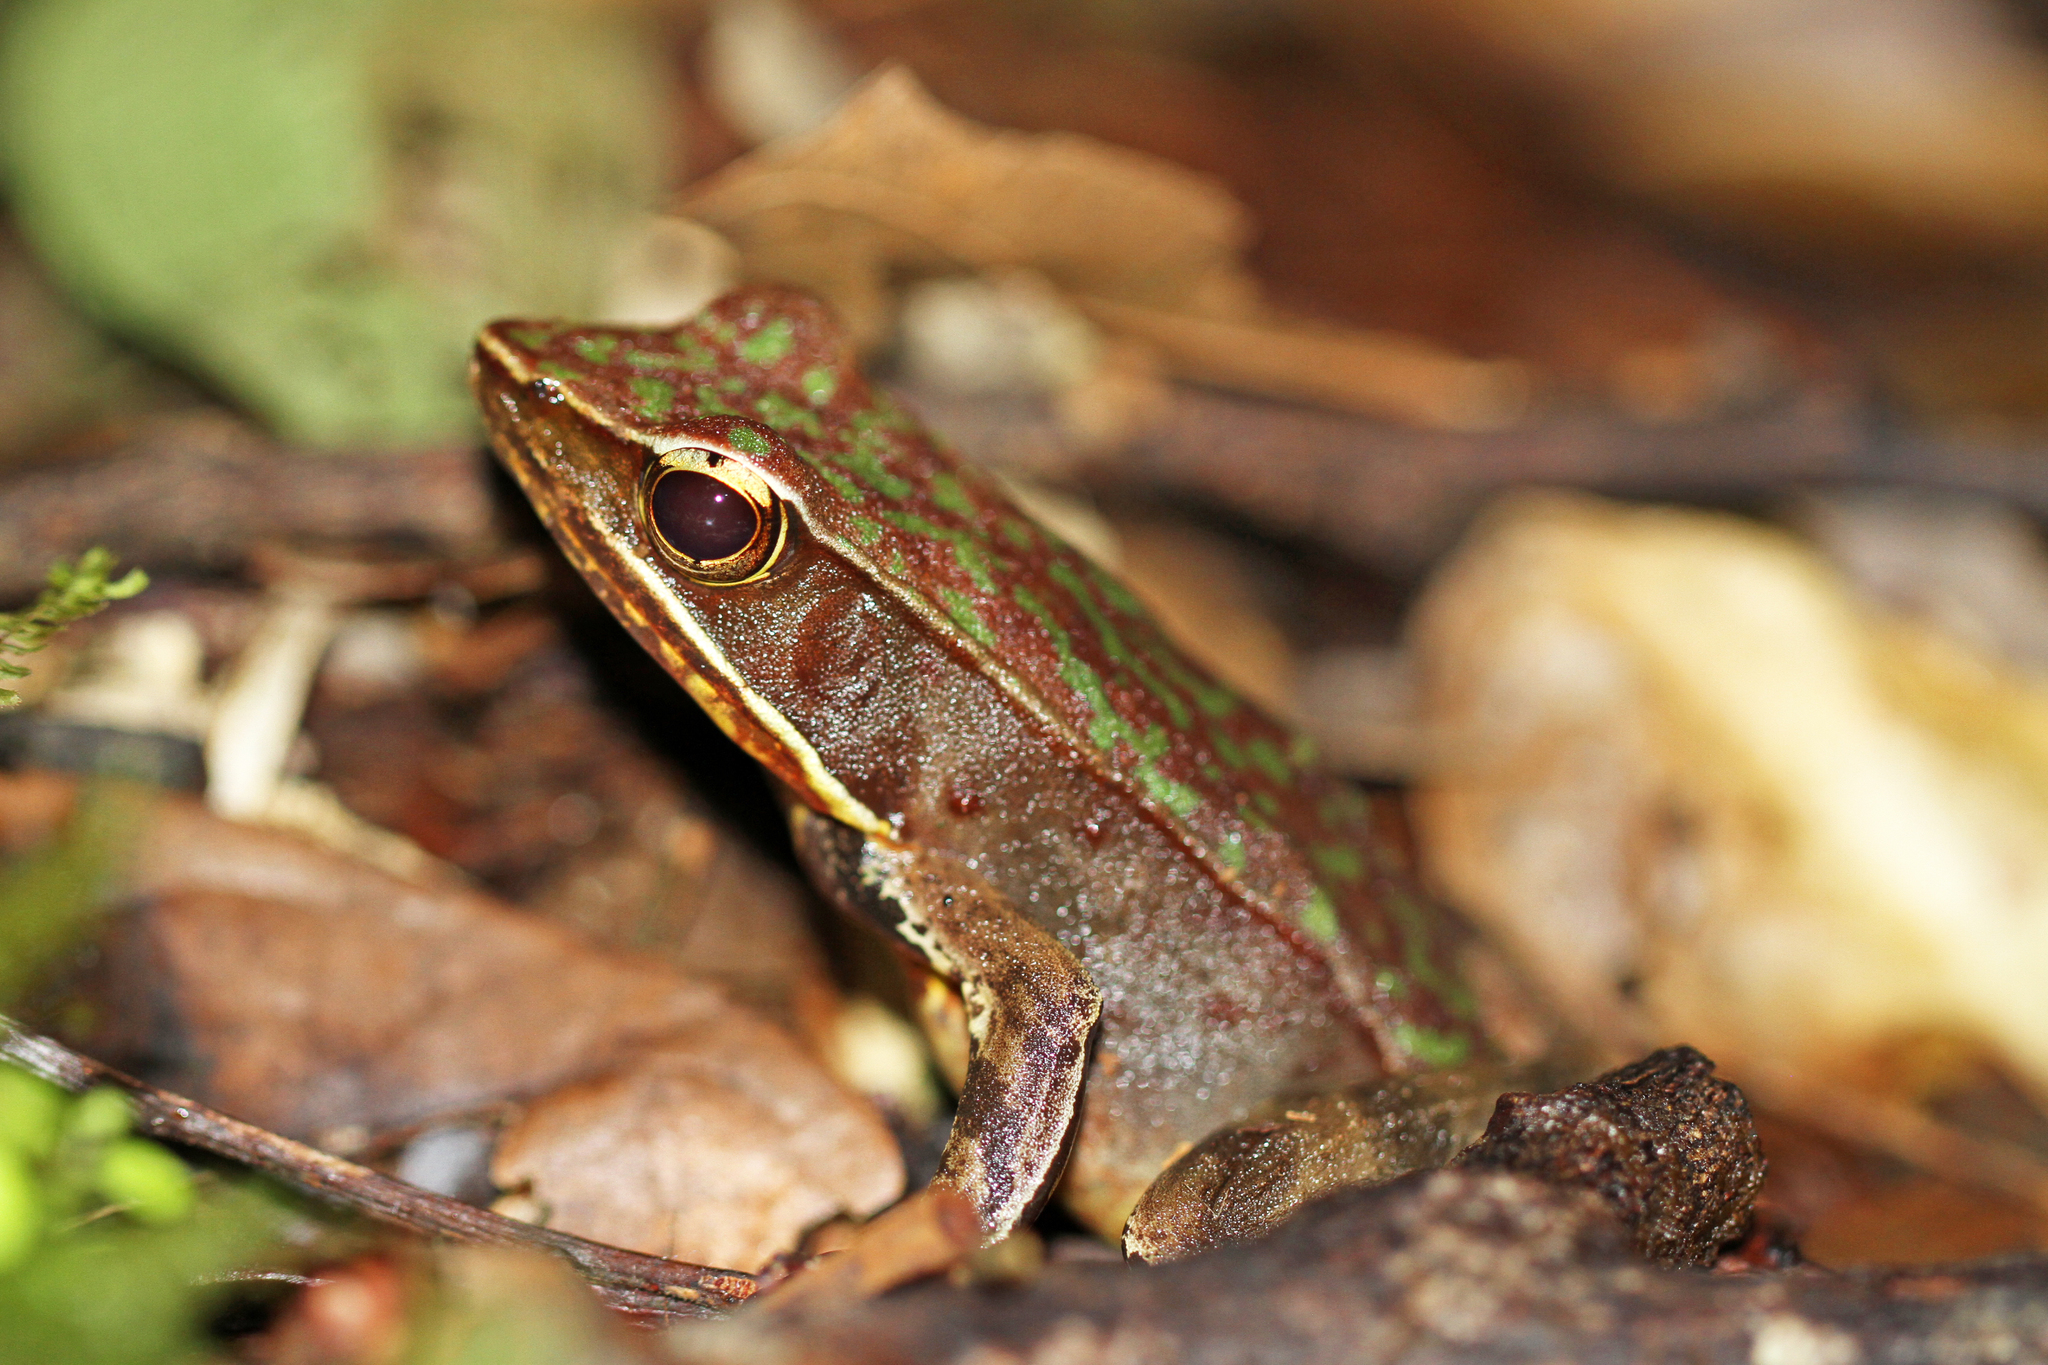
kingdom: Animalia
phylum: Chordata
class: Amphibia
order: Anura
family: Ranidae
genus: Lithobates
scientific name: Lithobates warszewitschii
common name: Warszewitsch's frog
